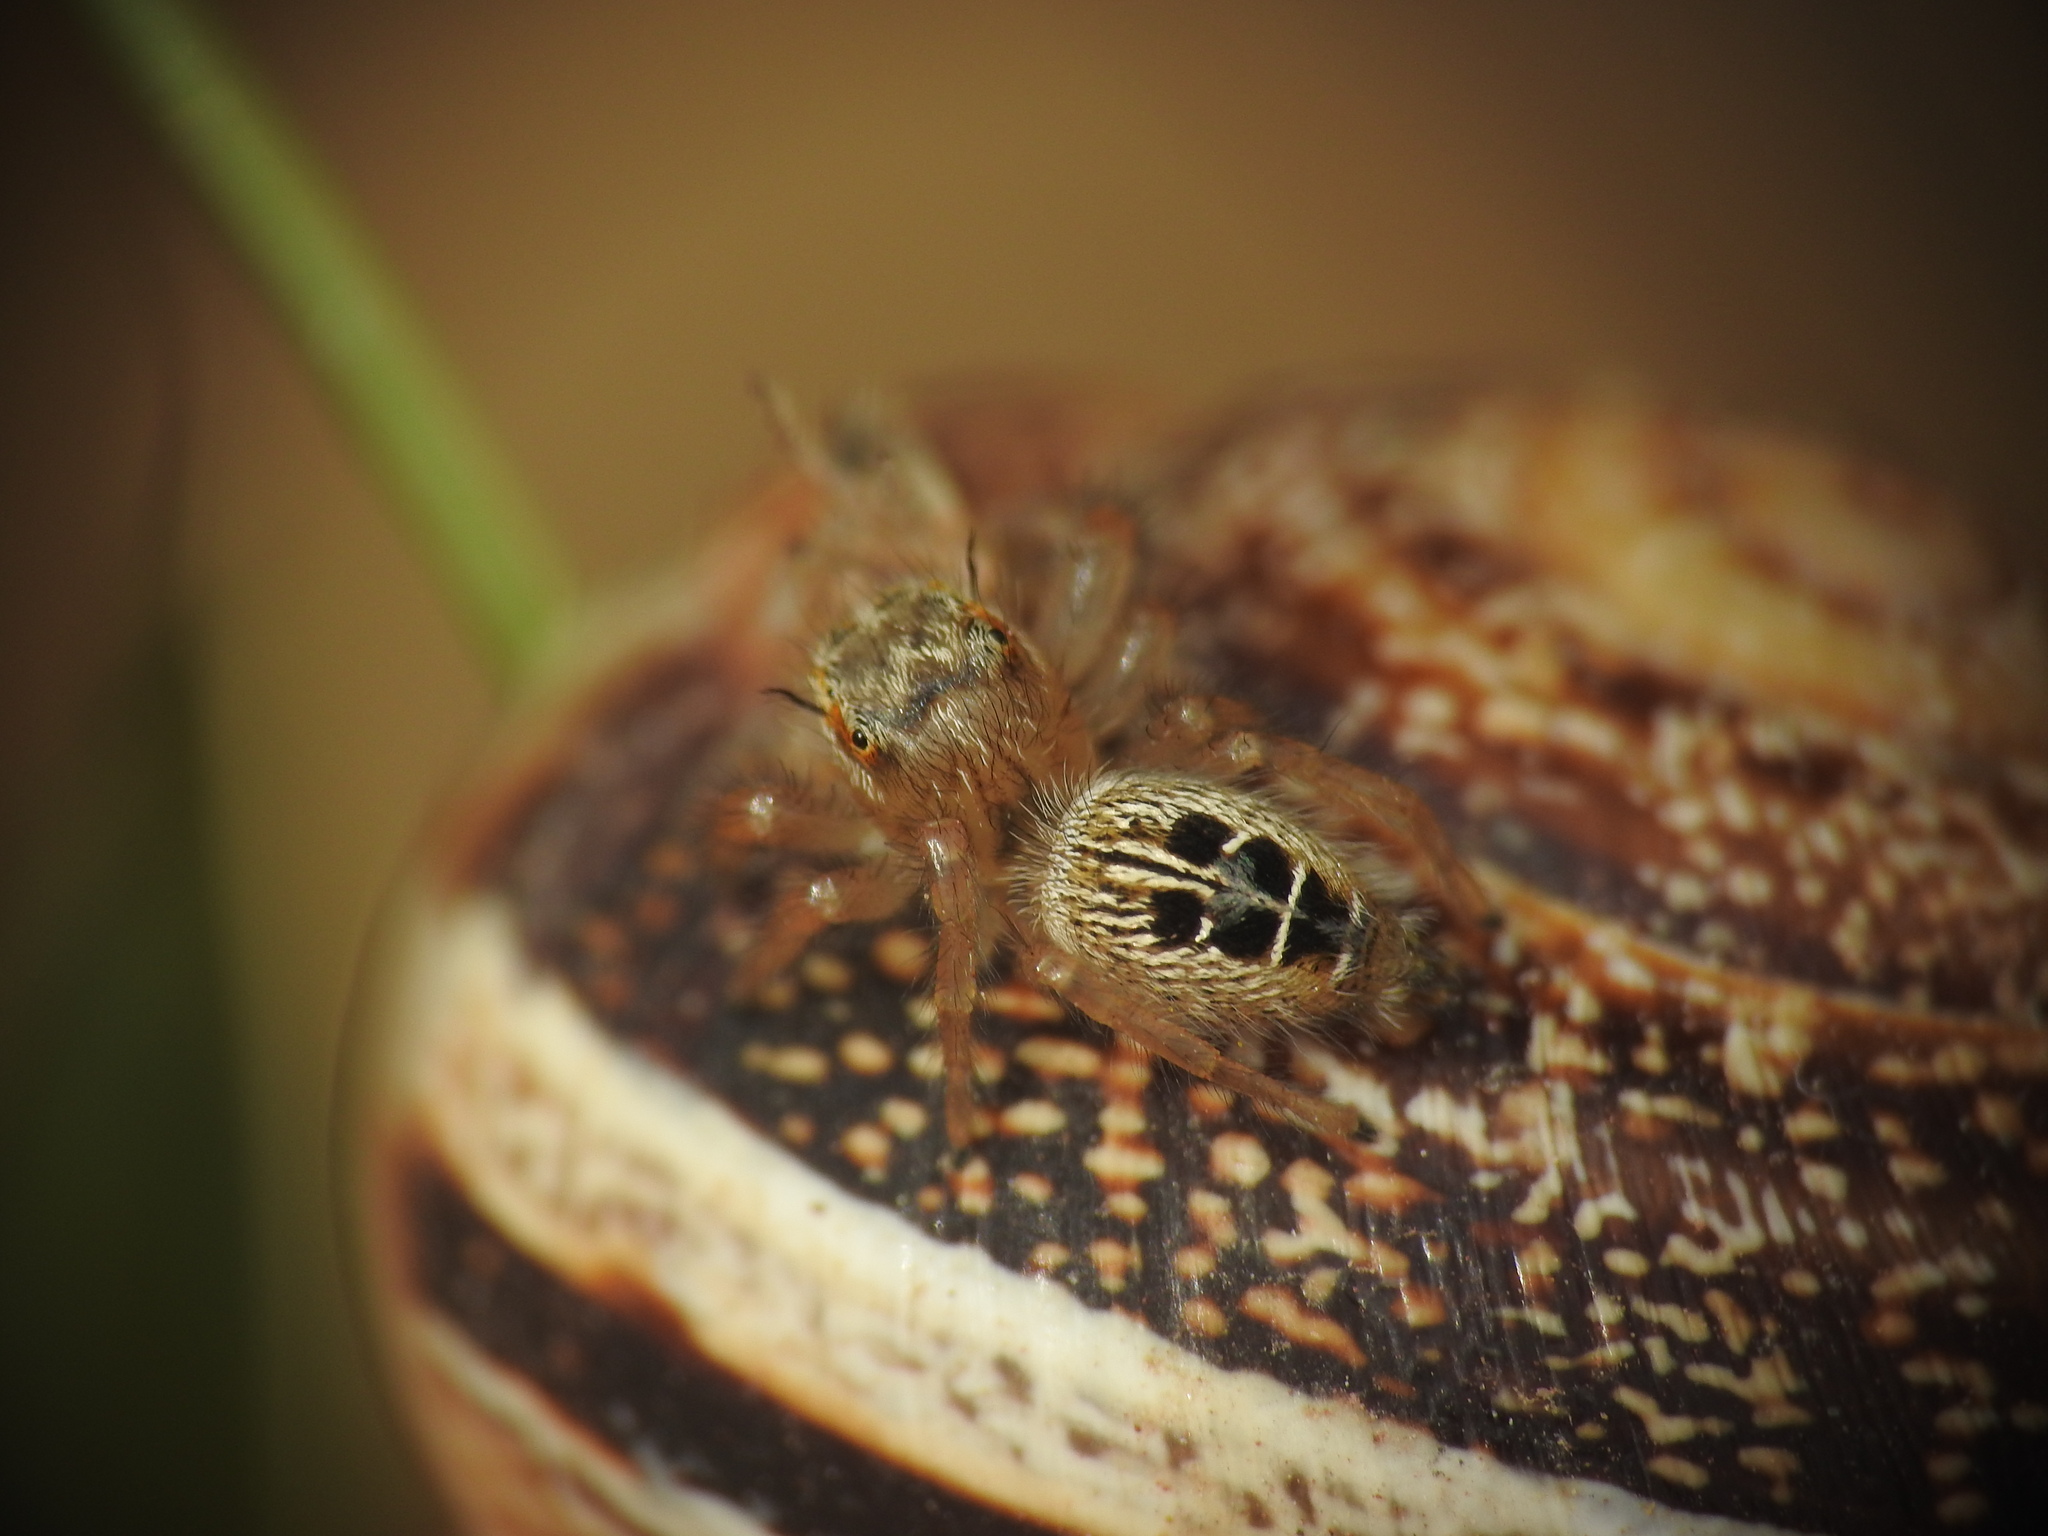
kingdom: Animalia
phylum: Arthropoda
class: Arachnida
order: Araneae
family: Salticidae
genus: Thyene
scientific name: Thyene imperialis
